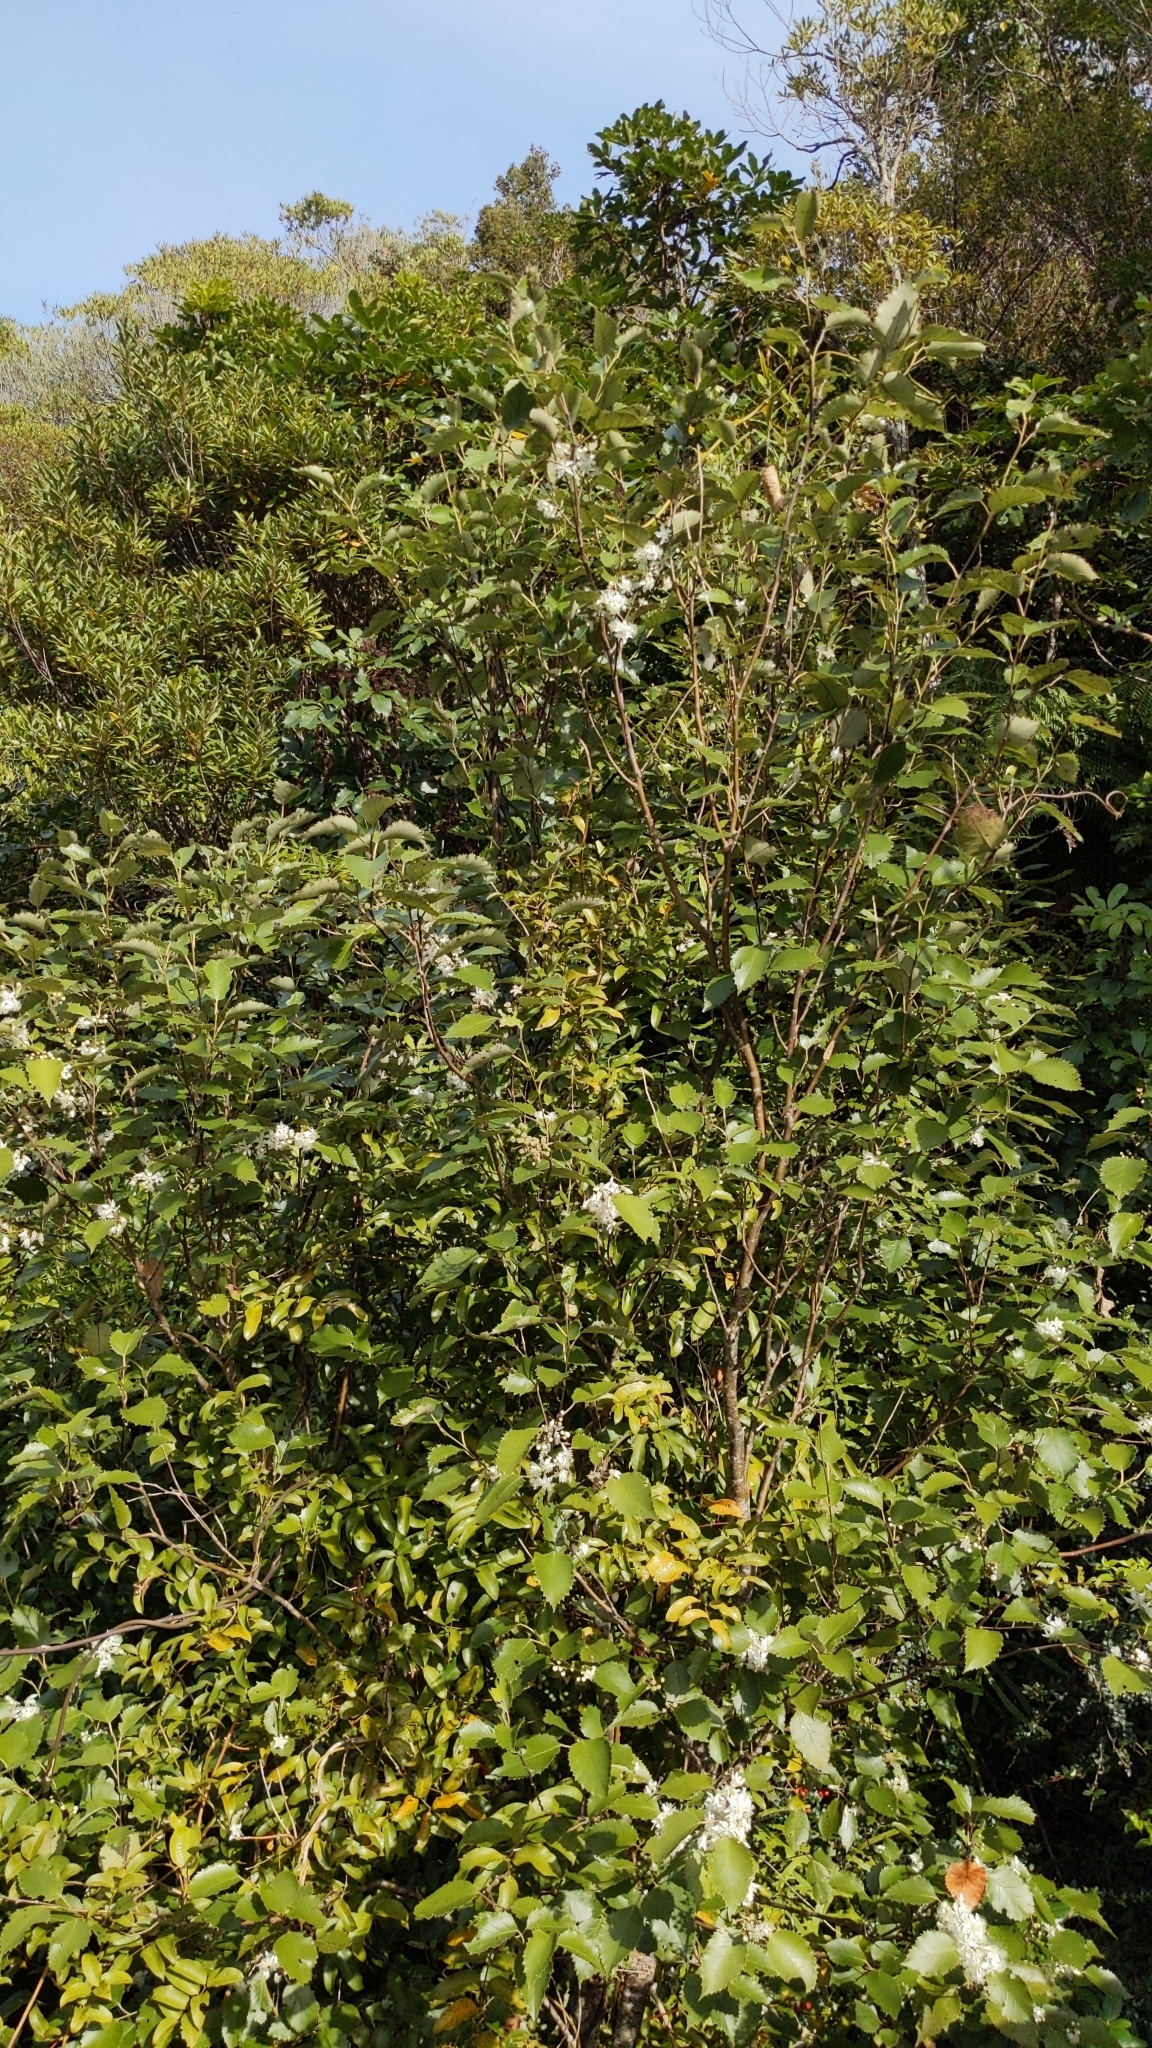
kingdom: Plantae
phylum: Tracheophyta
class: Magnoliopsida
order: Malvales
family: Malvaceae
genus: Hoheria
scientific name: Hoheria populnea
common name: Lacebark
